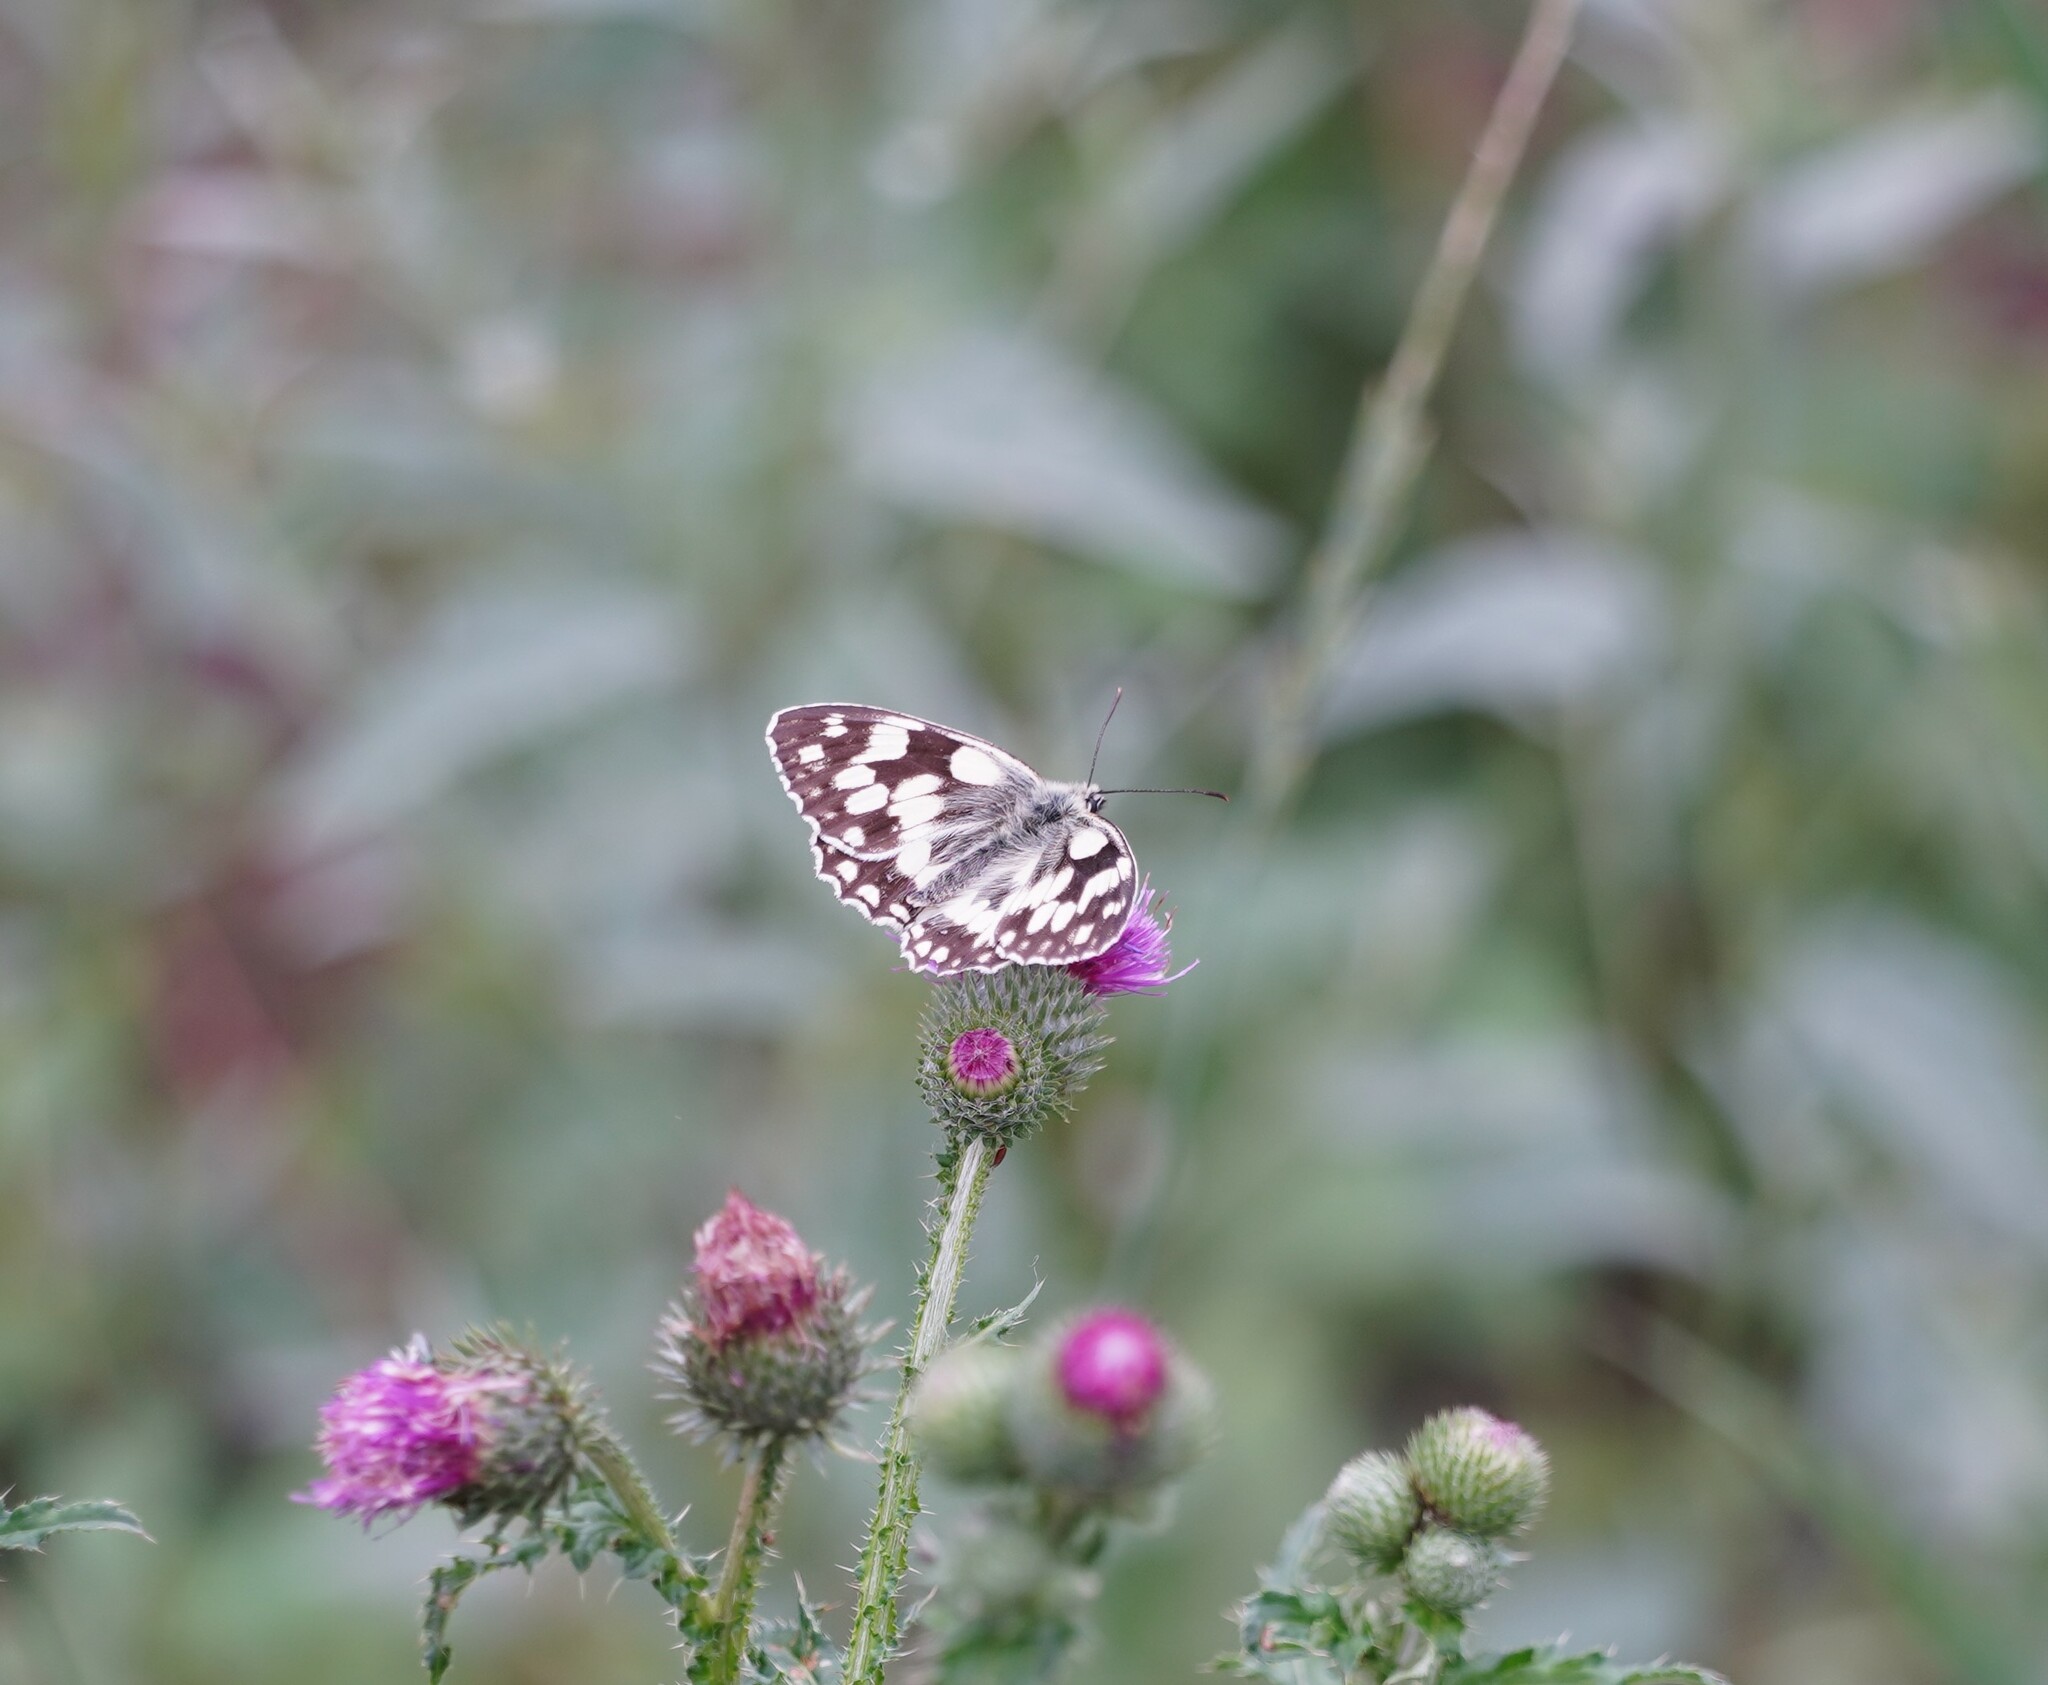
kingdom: Animalia
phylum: Arthropoda
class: Insecta
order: Lepidoptera
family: Nymphalidae
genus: Melanargia
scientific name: Melanargia galathea
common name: Marbled white
